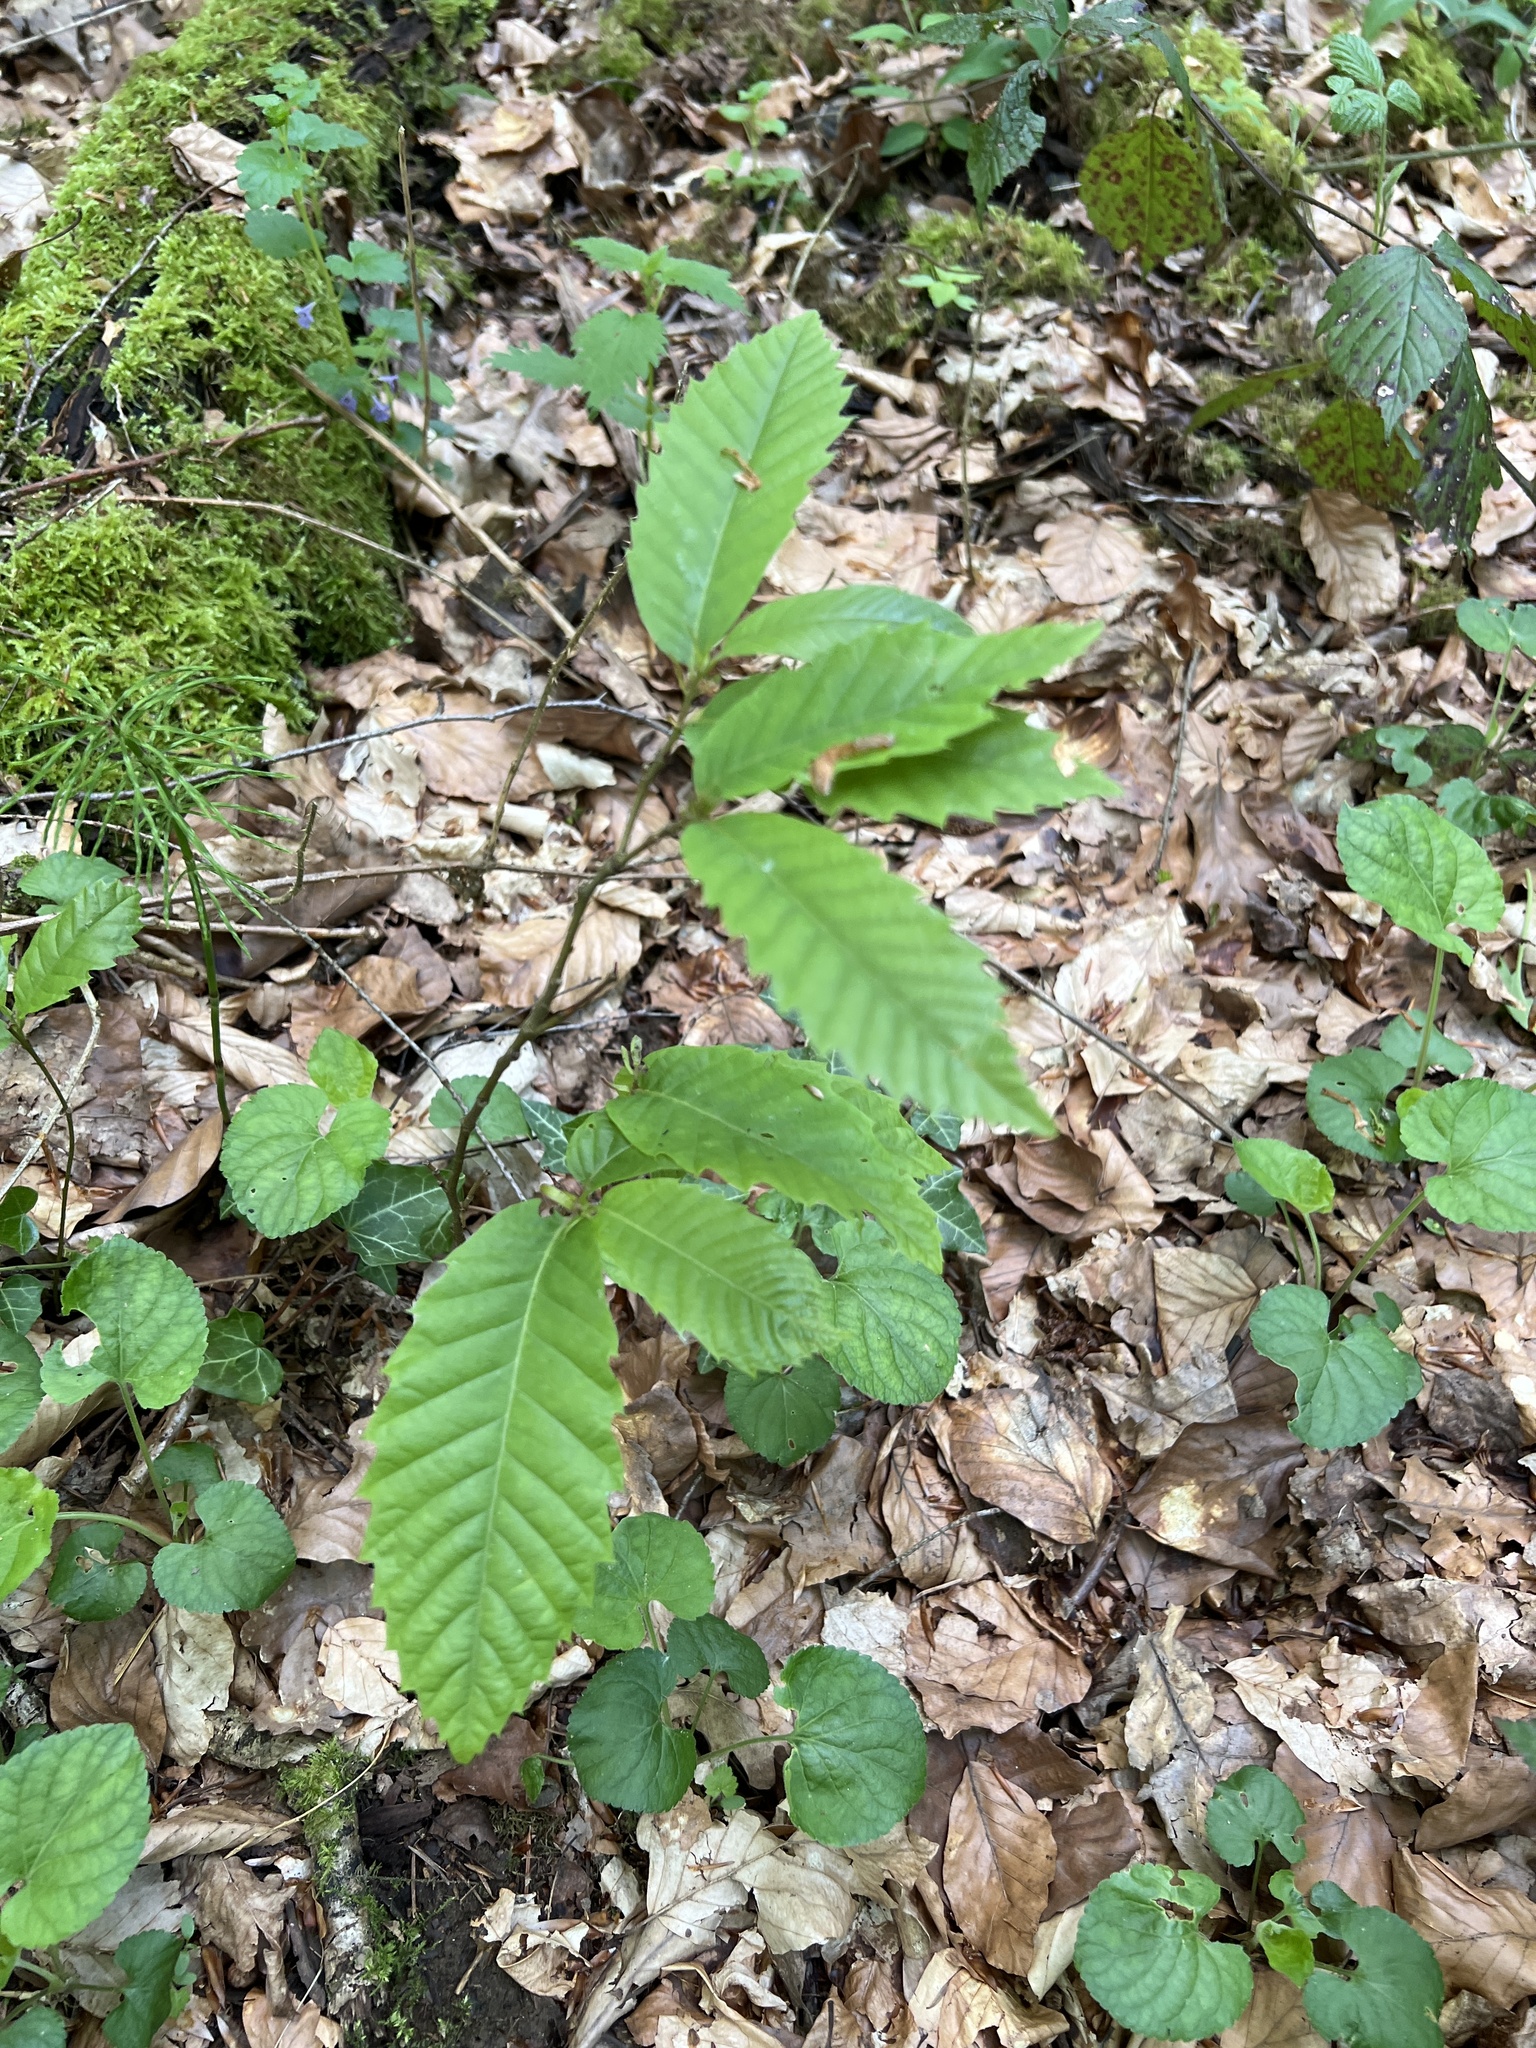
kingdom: Plantae
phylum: Tracheophyta
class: Magnoliopsida
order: Fagales
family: Fagaceae
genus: Castanea
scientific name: Castanea sativa
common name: Sweet chestnut
